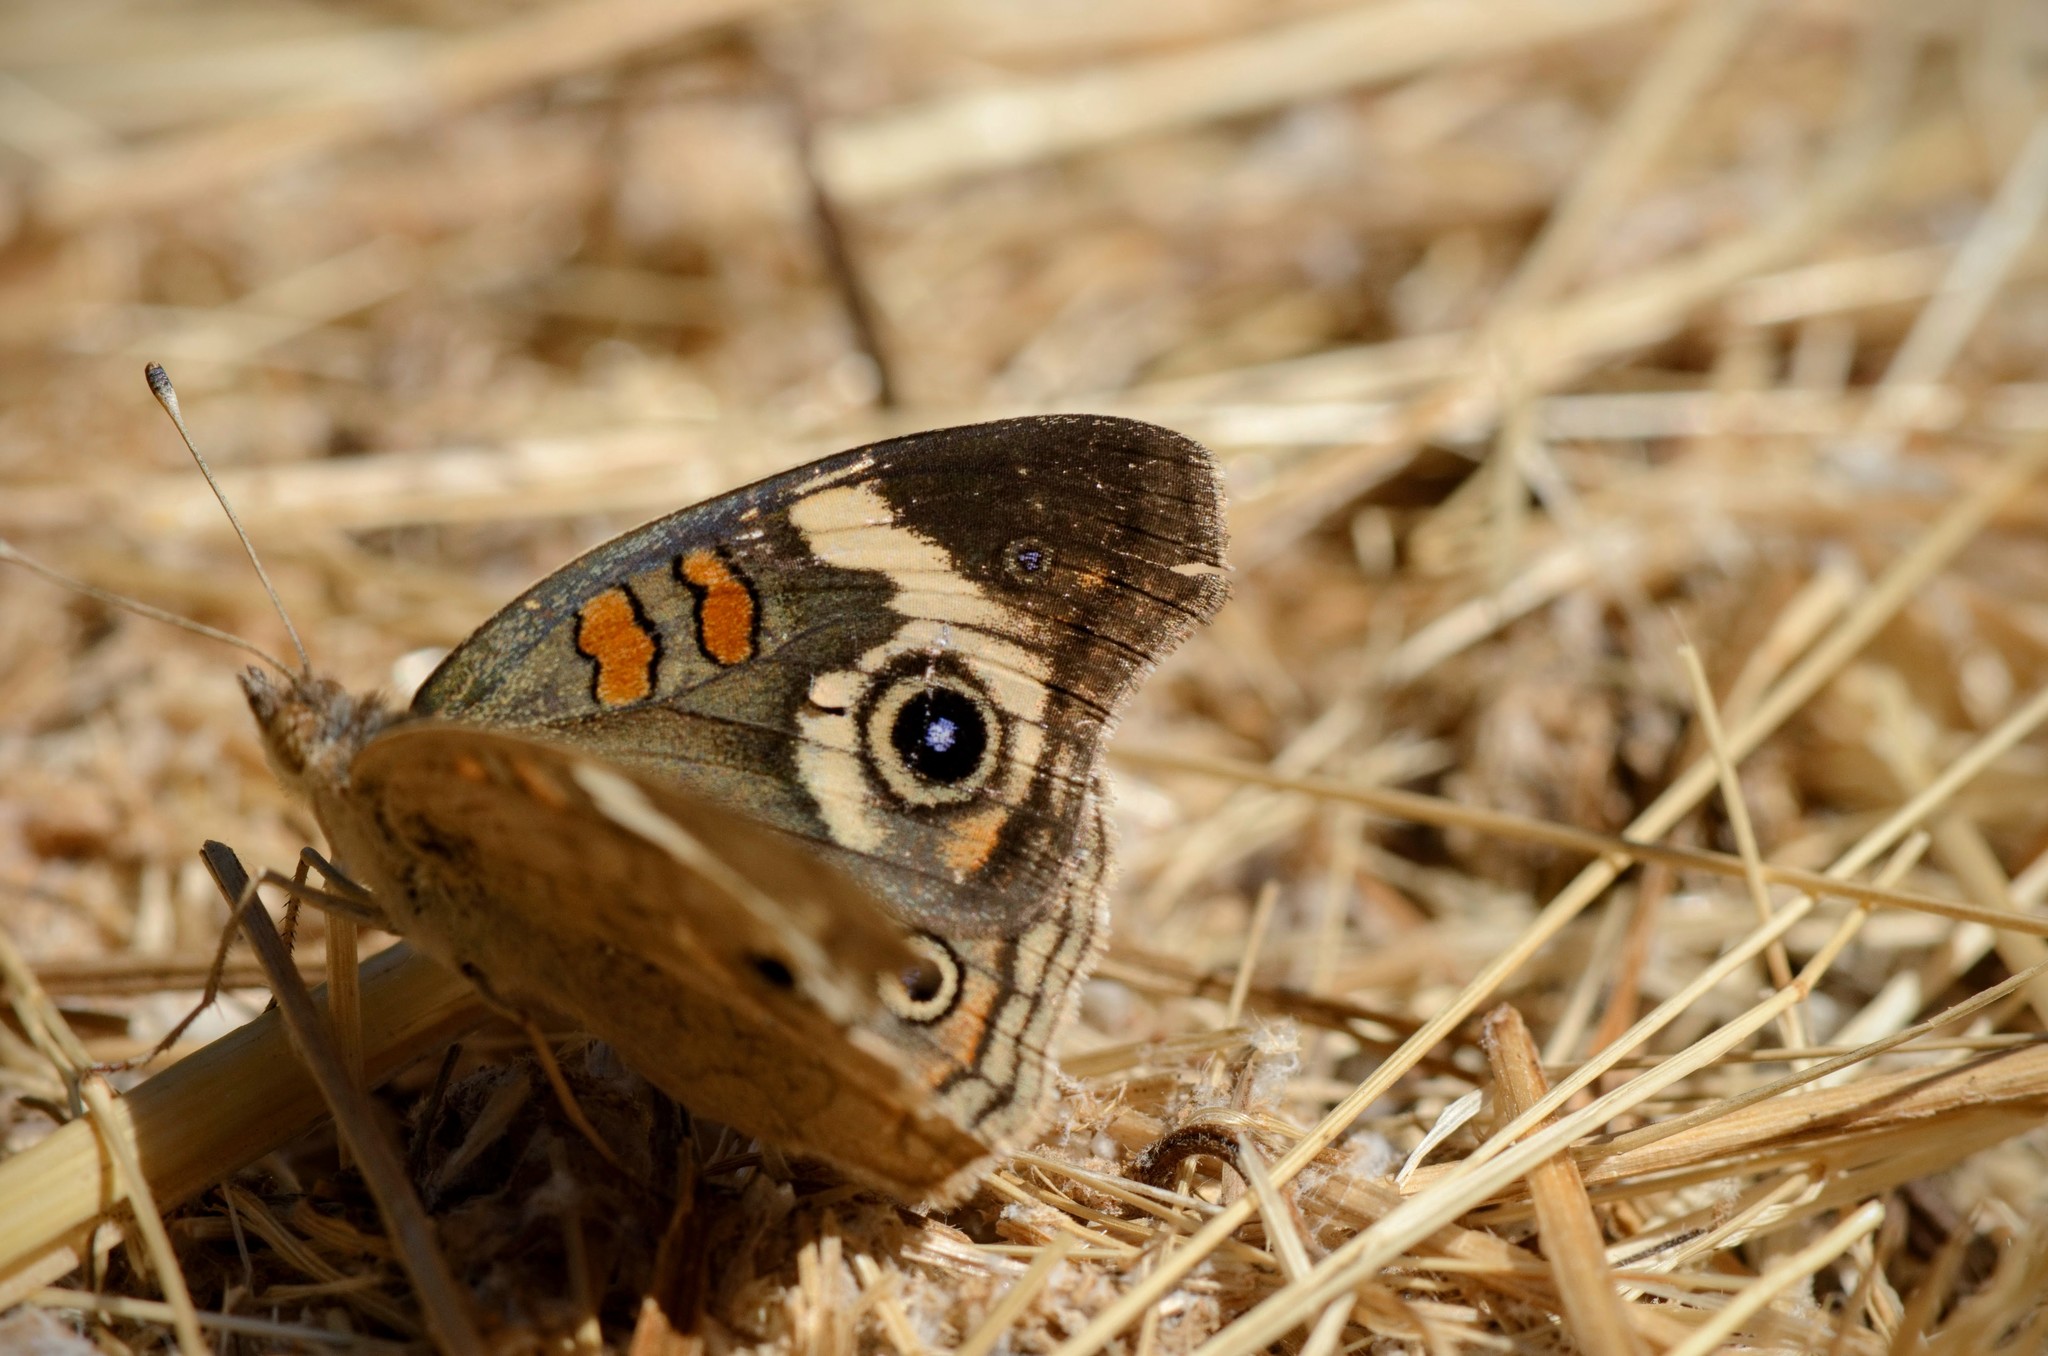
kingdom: Animalia
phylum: Arthropoda
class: Insecta
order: Lepidoptera
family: Nymphalidae
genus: Junonia
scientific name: Junonia grisea
